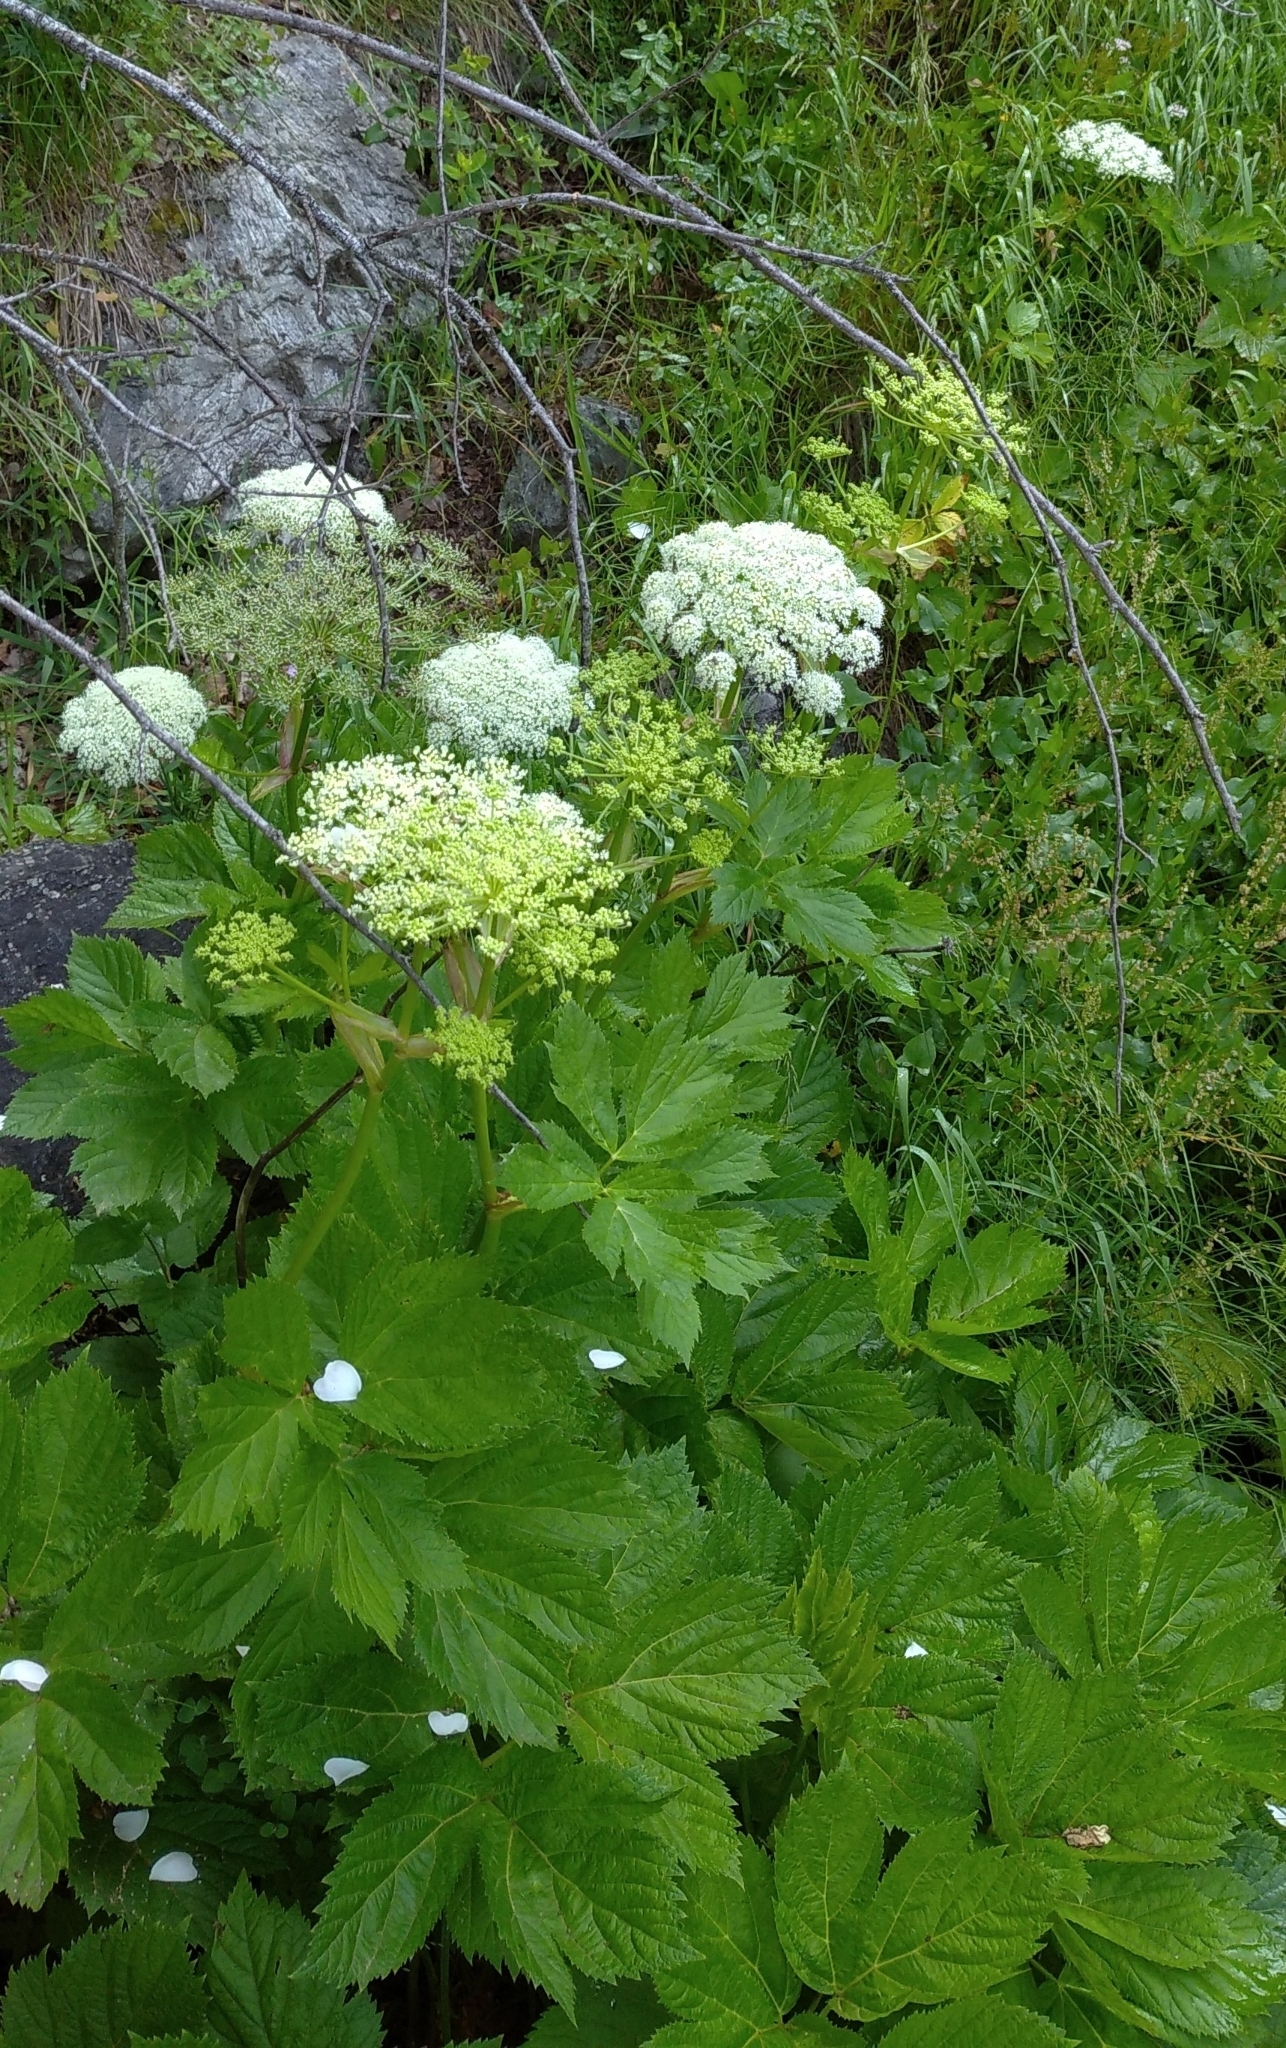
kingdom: Plantae
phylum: Tracheophyta
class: Magnoliopsida
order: Apiales
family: Apiaceae
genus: Imperatoria
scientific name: Imperatoria ostruthium
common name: Masterwort
